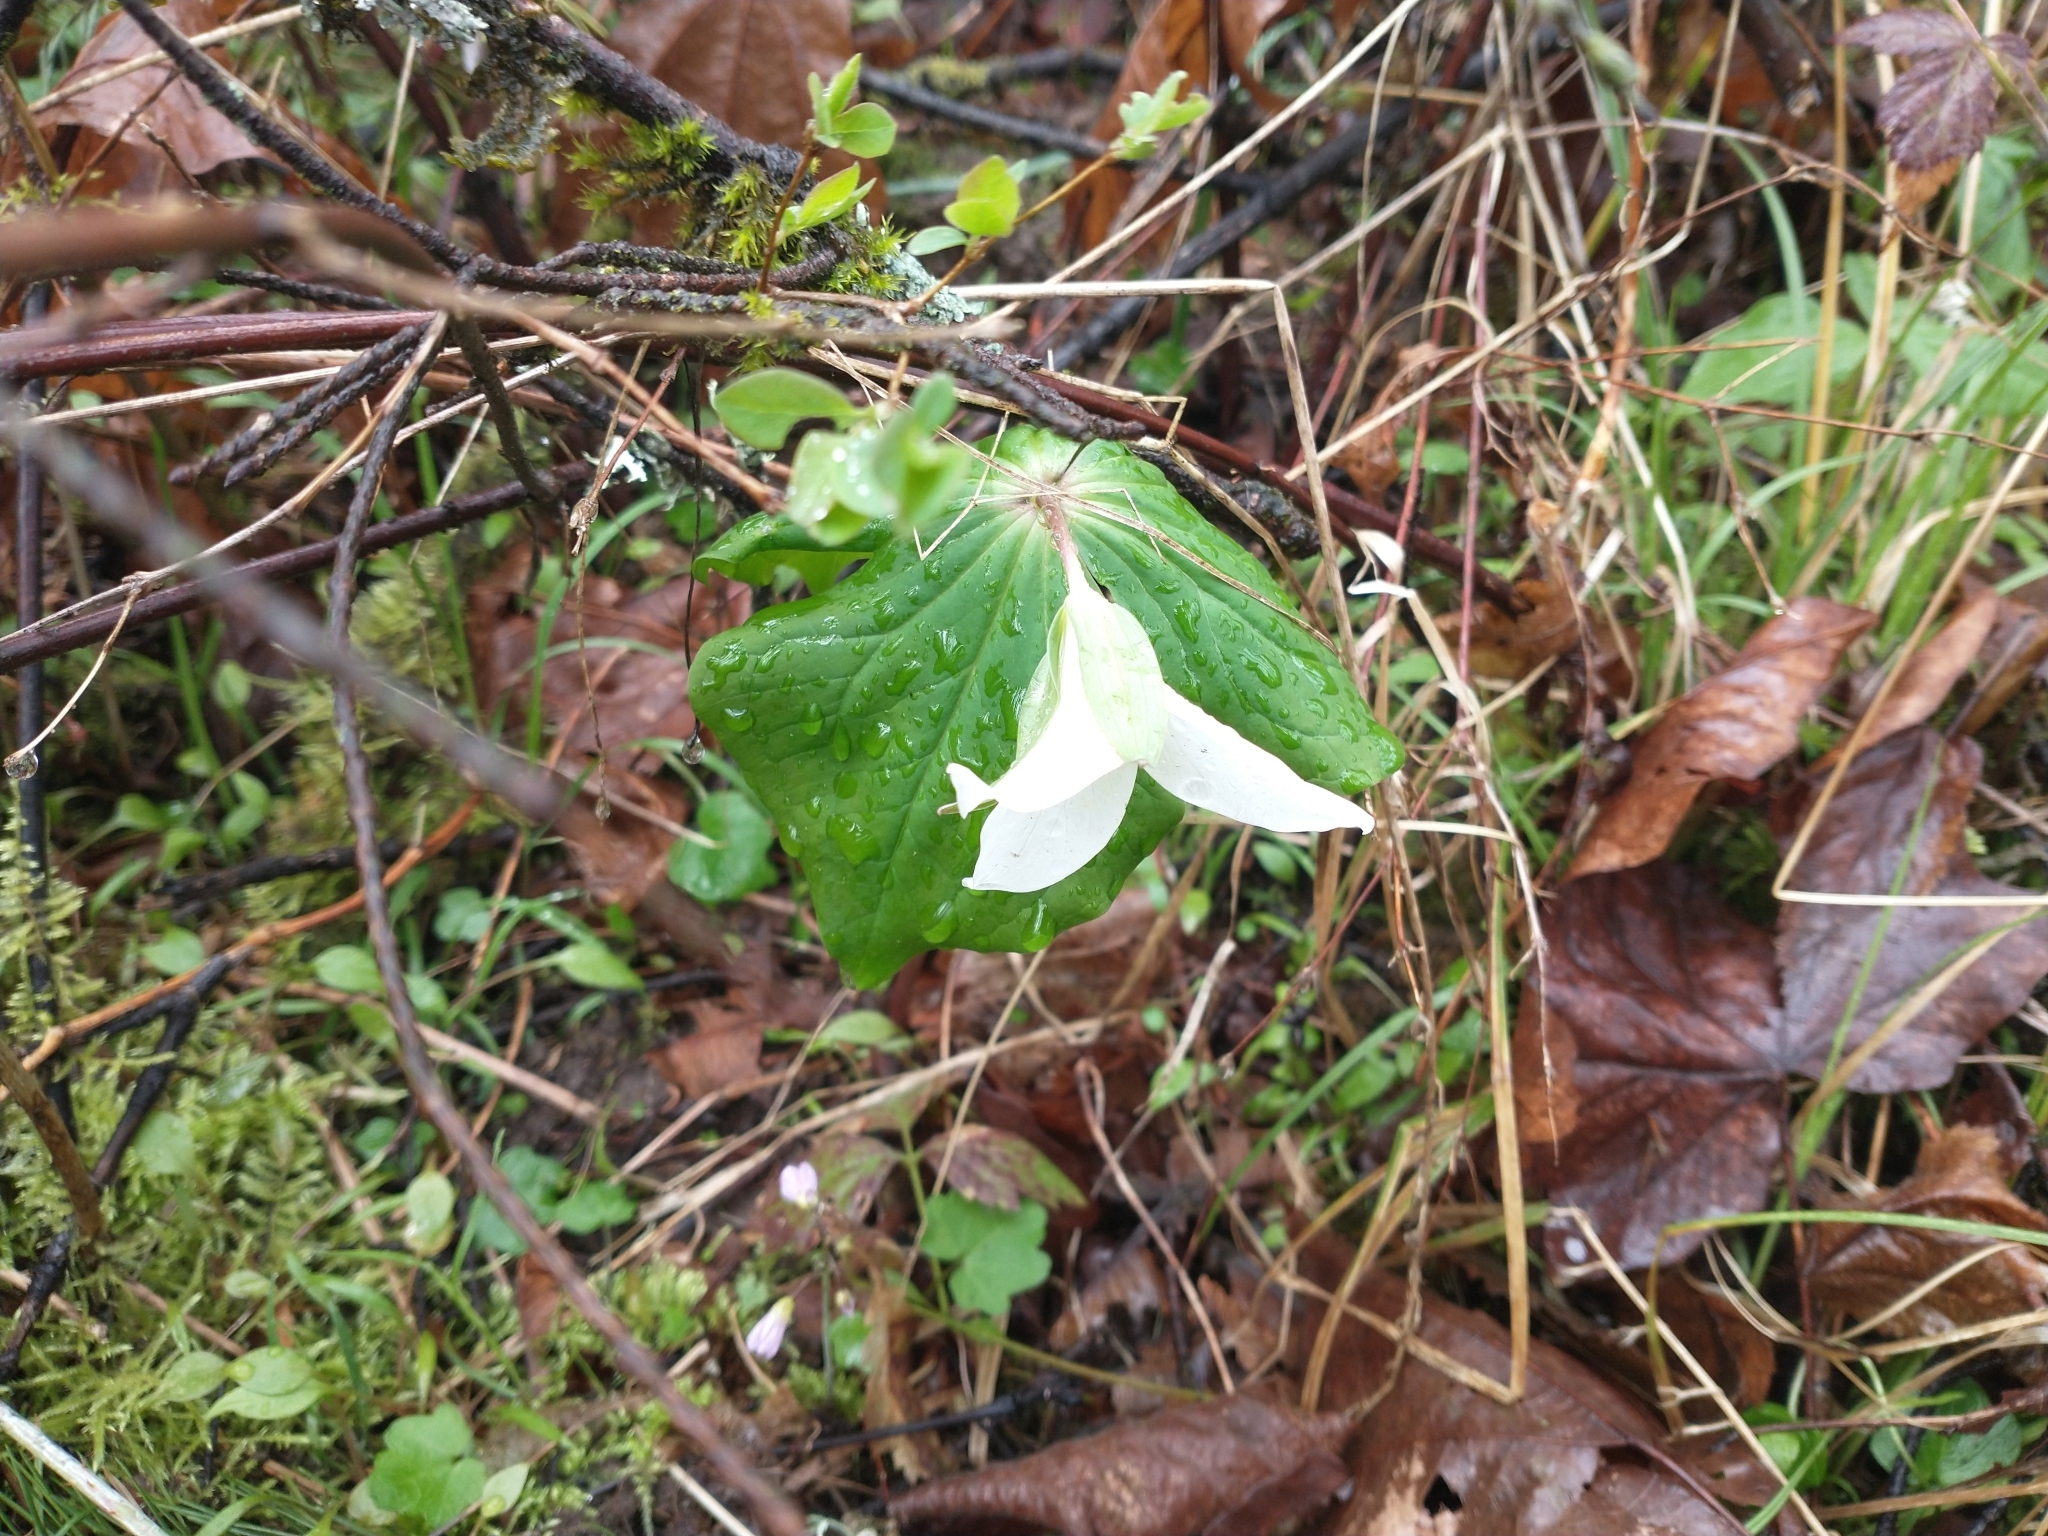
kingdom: Plantae
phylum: Tracheophyta
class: Liliopsida
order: Liliales
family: Melanthiaceae
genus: Trillium
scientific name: Trillium ovatum
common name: Pacific trillium
